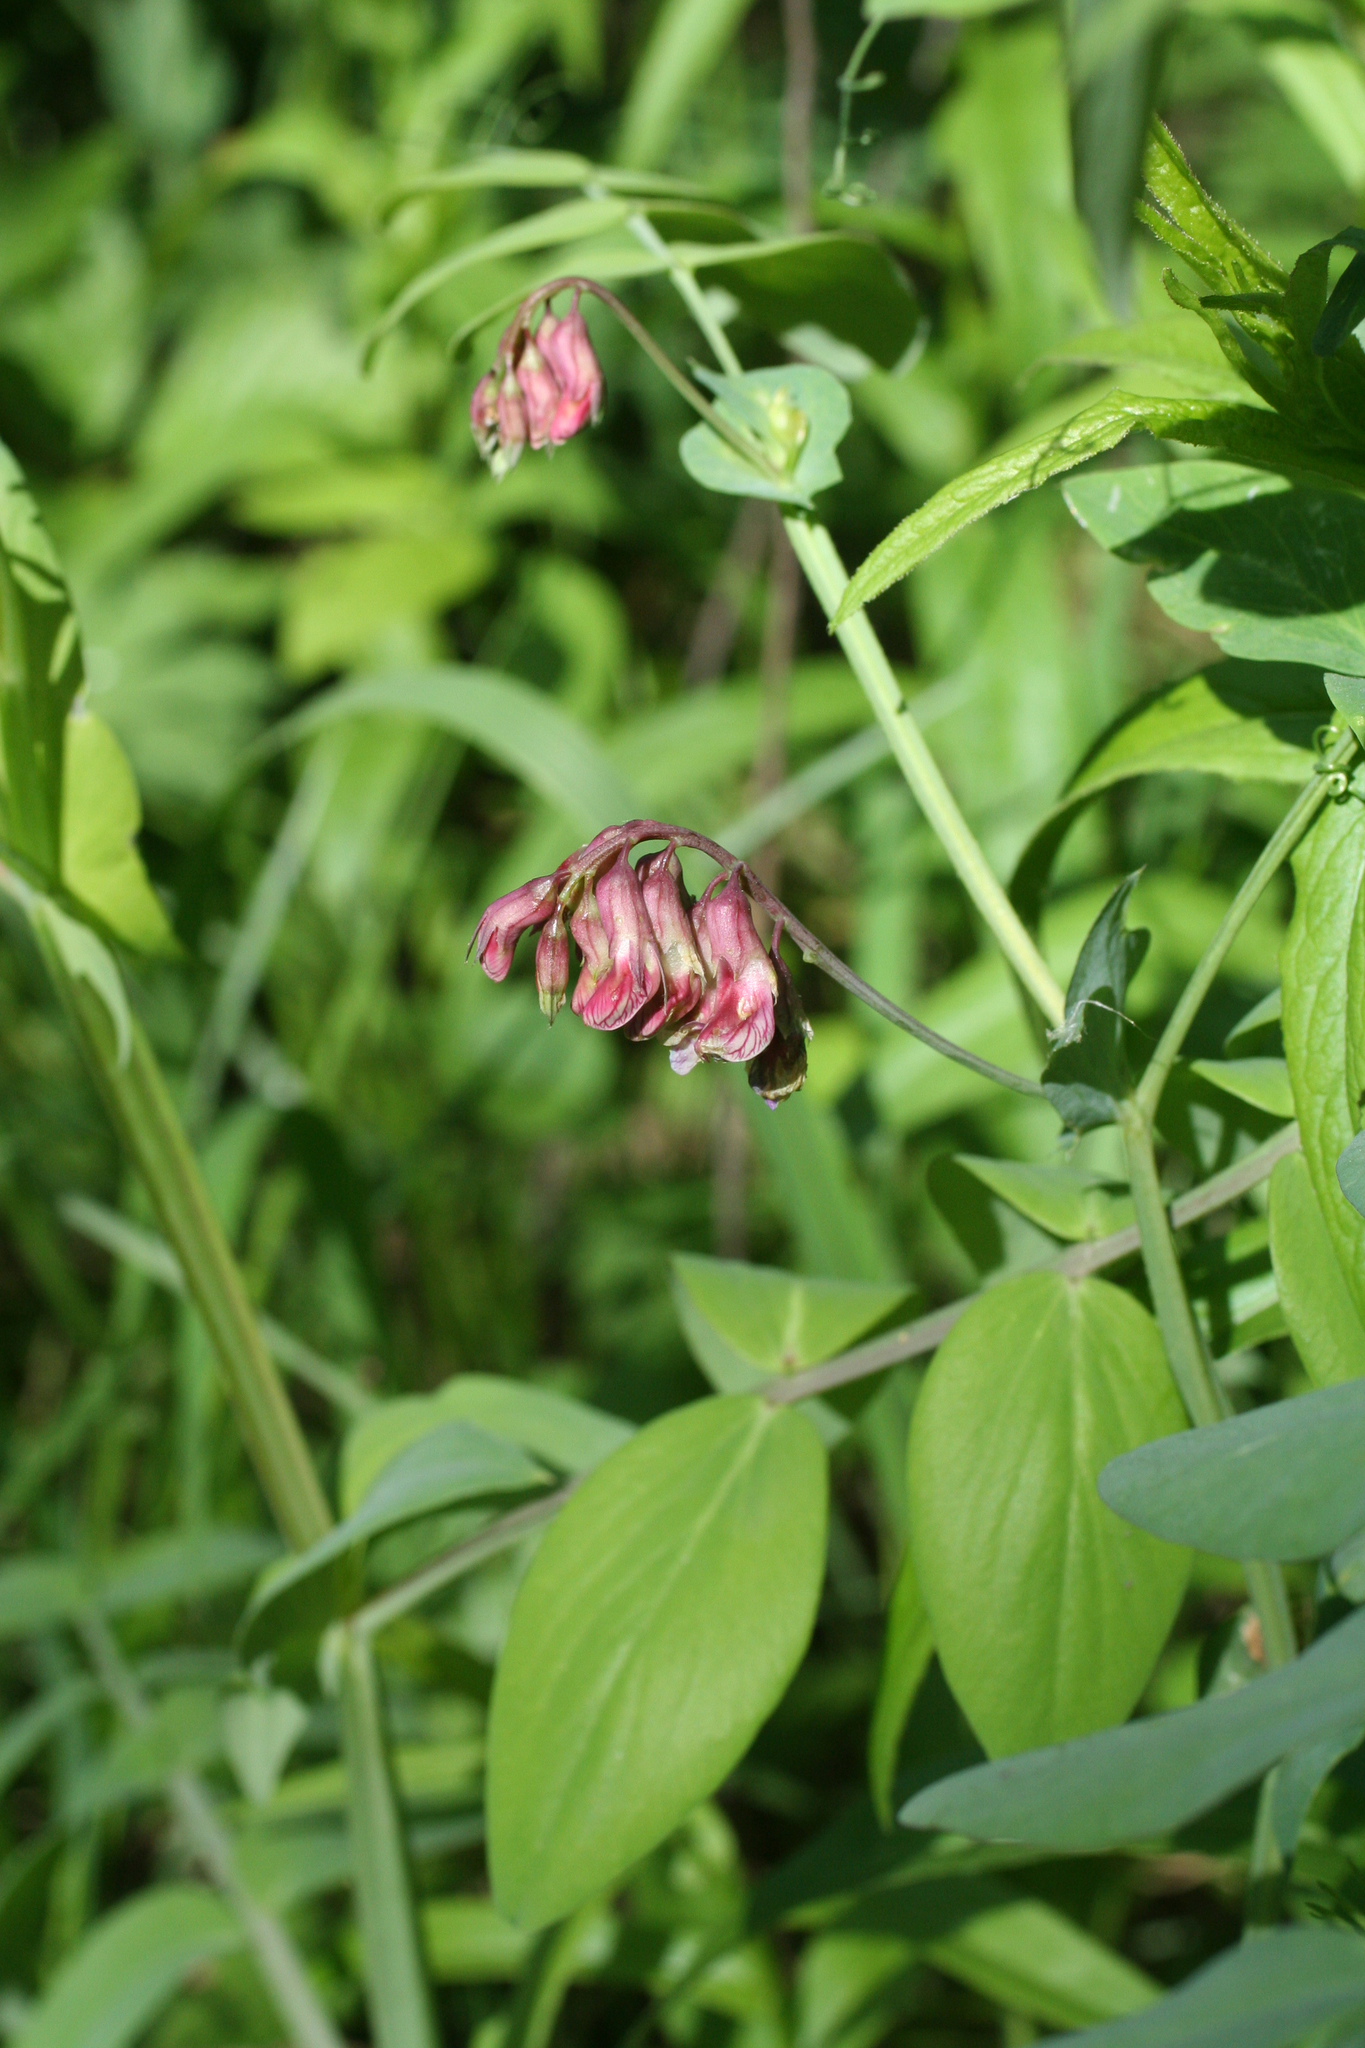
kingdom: Plantae
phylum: Tracheophyta
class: Magnoliopsida
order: Fabales
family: Fabaceae
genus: Lathyrus
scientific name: Lathyrus pisiformis
